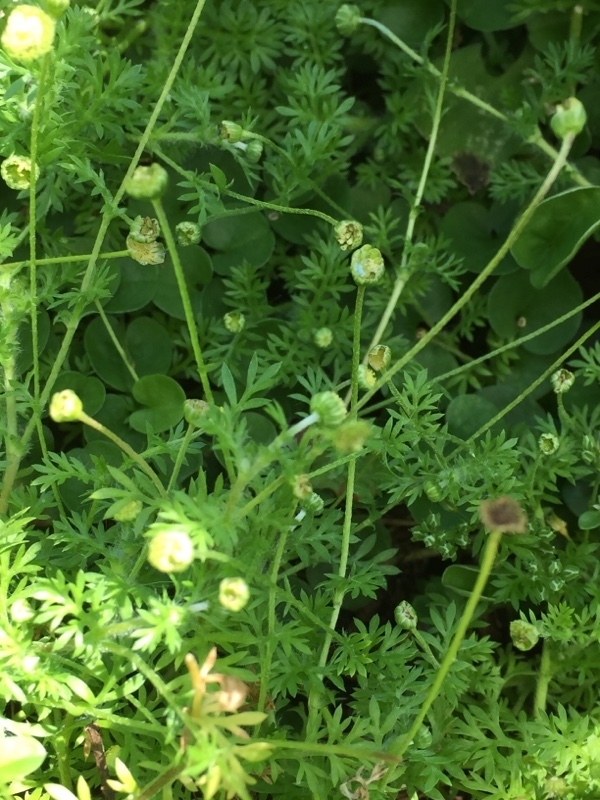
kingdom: Plantae
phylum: Tracheophyta
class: Magnoliopsida
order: Asterales
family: Asteraceae
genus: Cotula
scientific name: Cotula australis
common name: Australian waterbuttons
